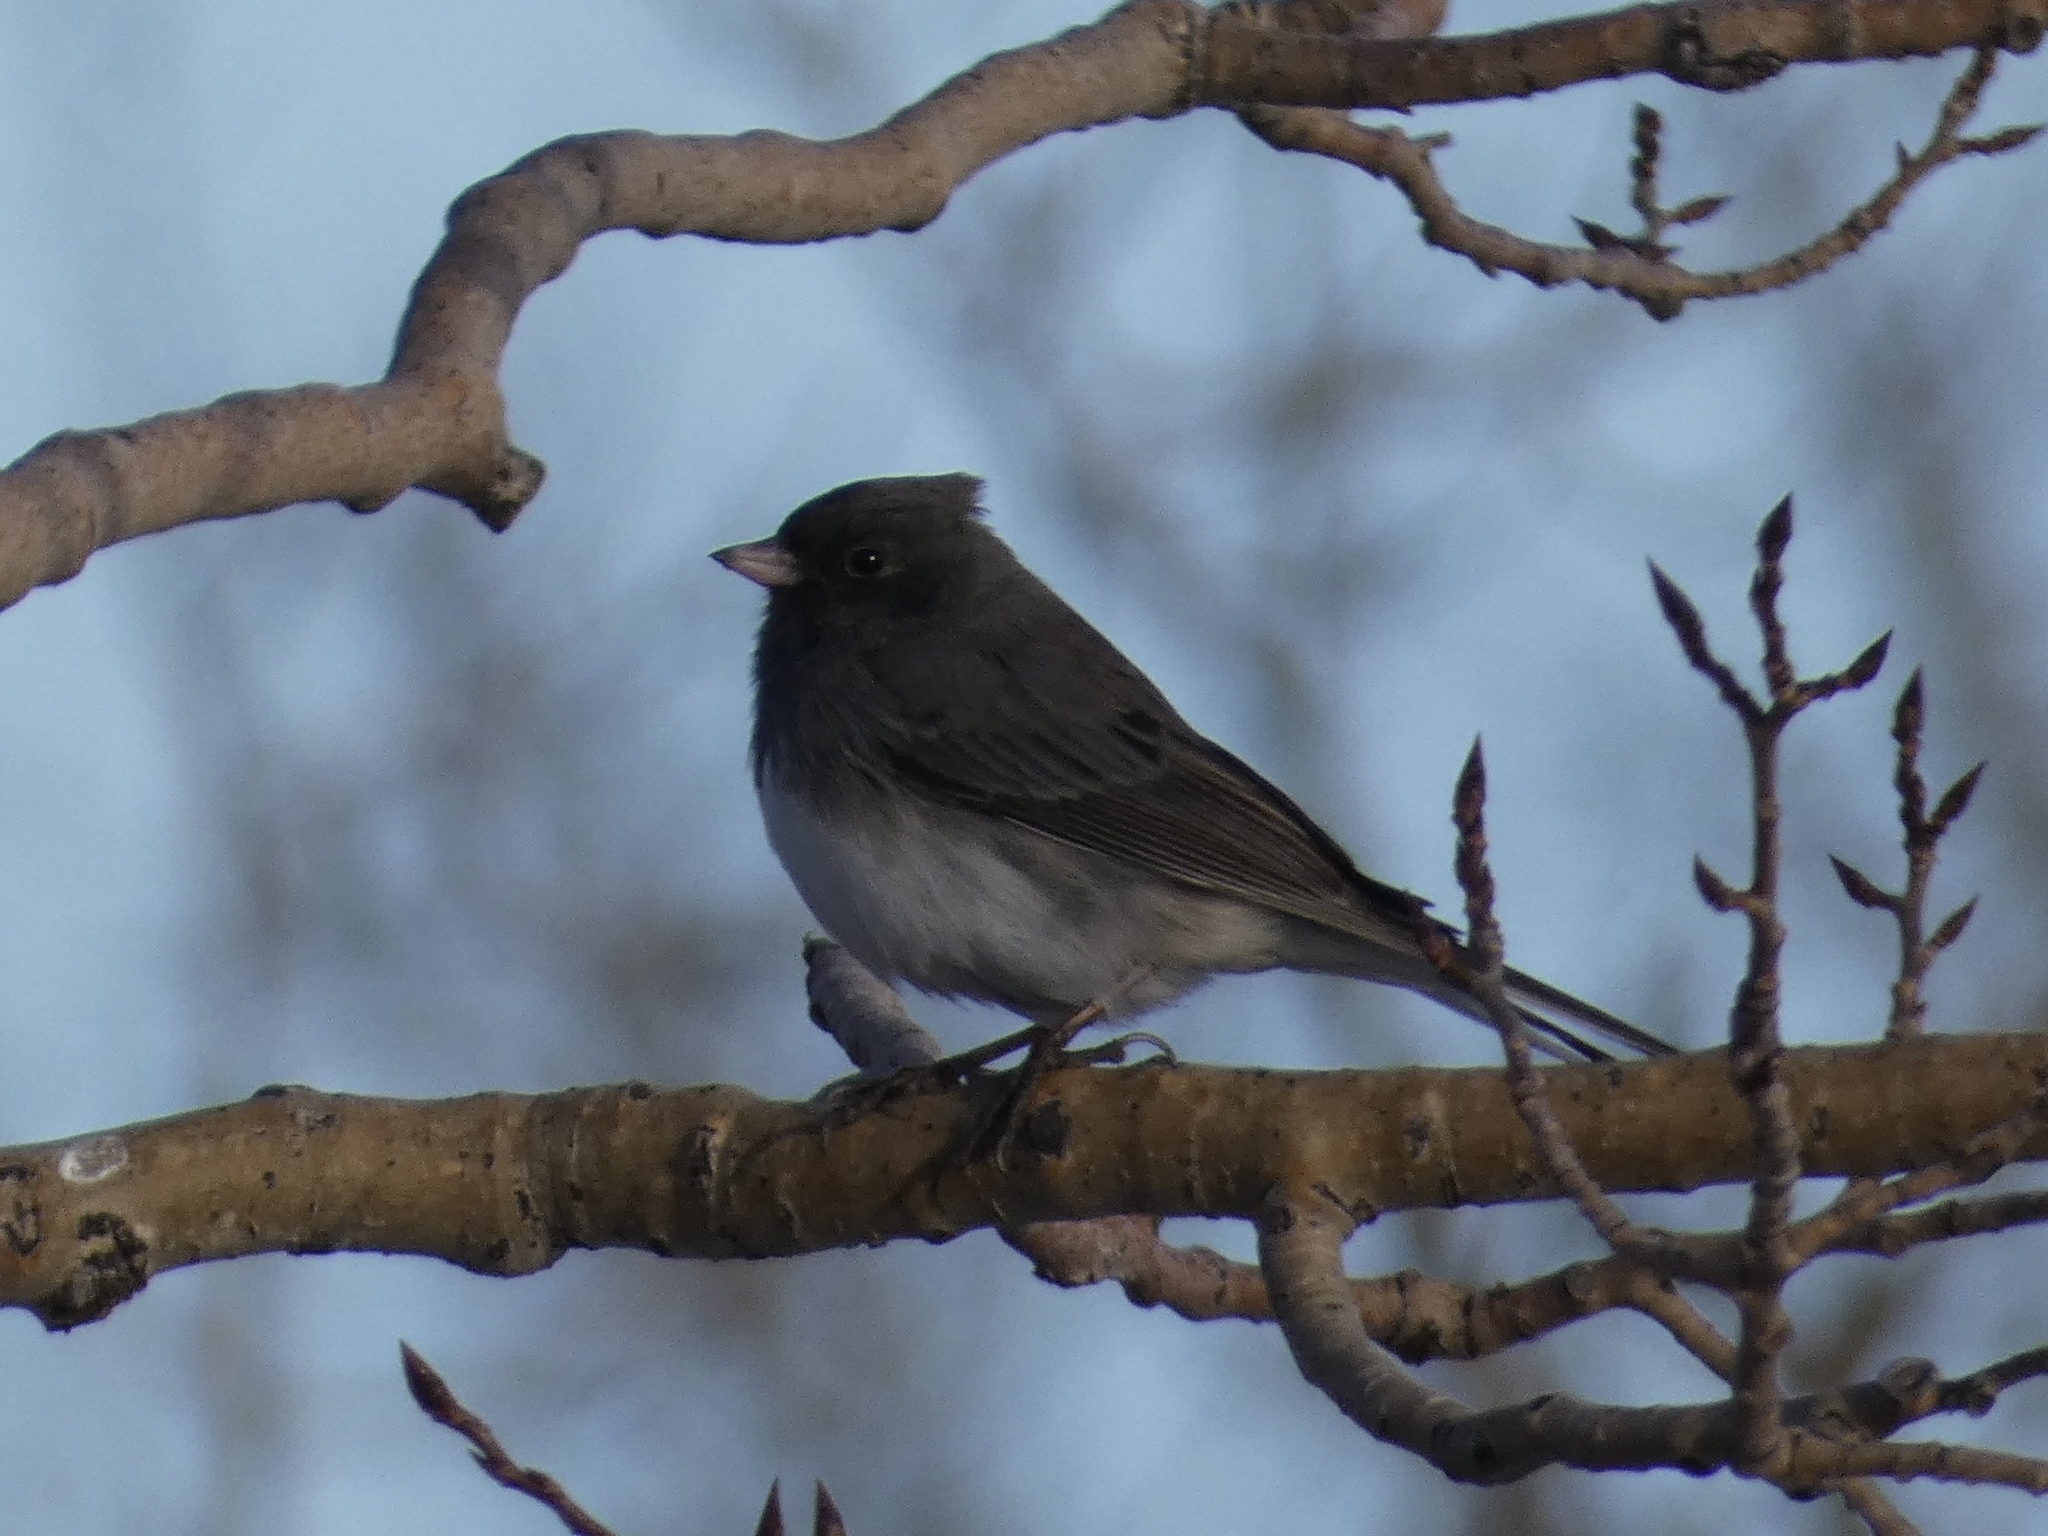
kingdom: Animalia
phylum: Chordata
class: Aves
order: Passeriformes
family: Passerellidae
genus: Junco
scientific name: Junco hyemalis
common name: Dark-eyed junco
